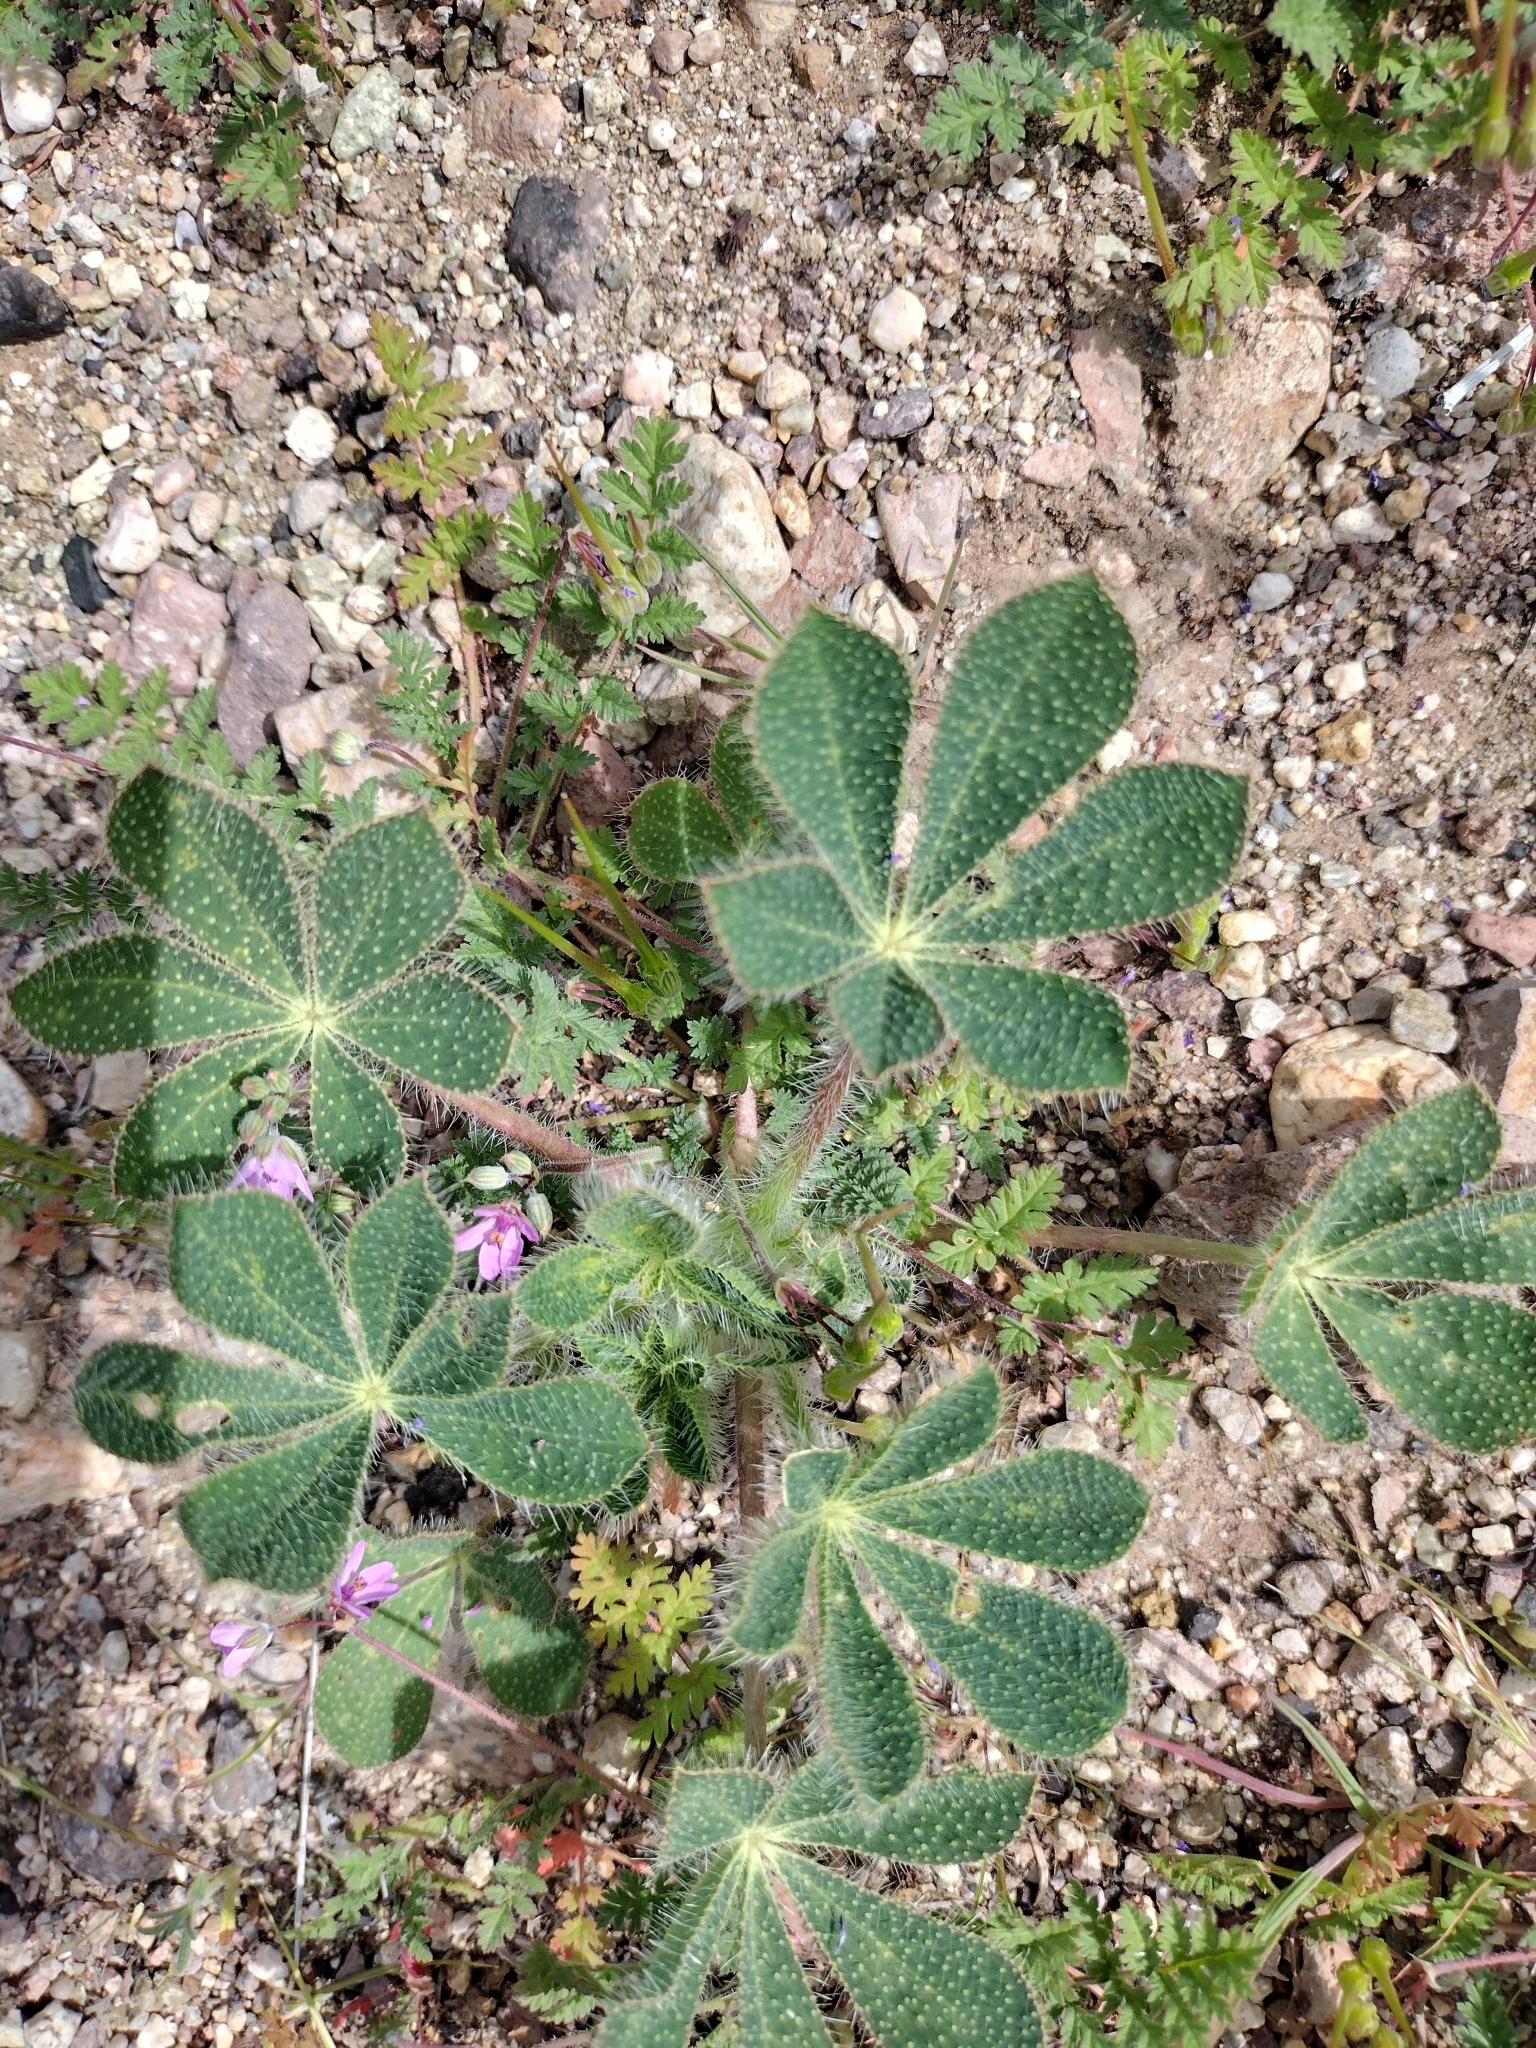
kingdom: Plantae
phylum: Tracheophyta
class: Magnoliopsida
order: Fabales
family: Fabaceae
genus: Lupinus
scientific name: Lupinus hirsutissimus
